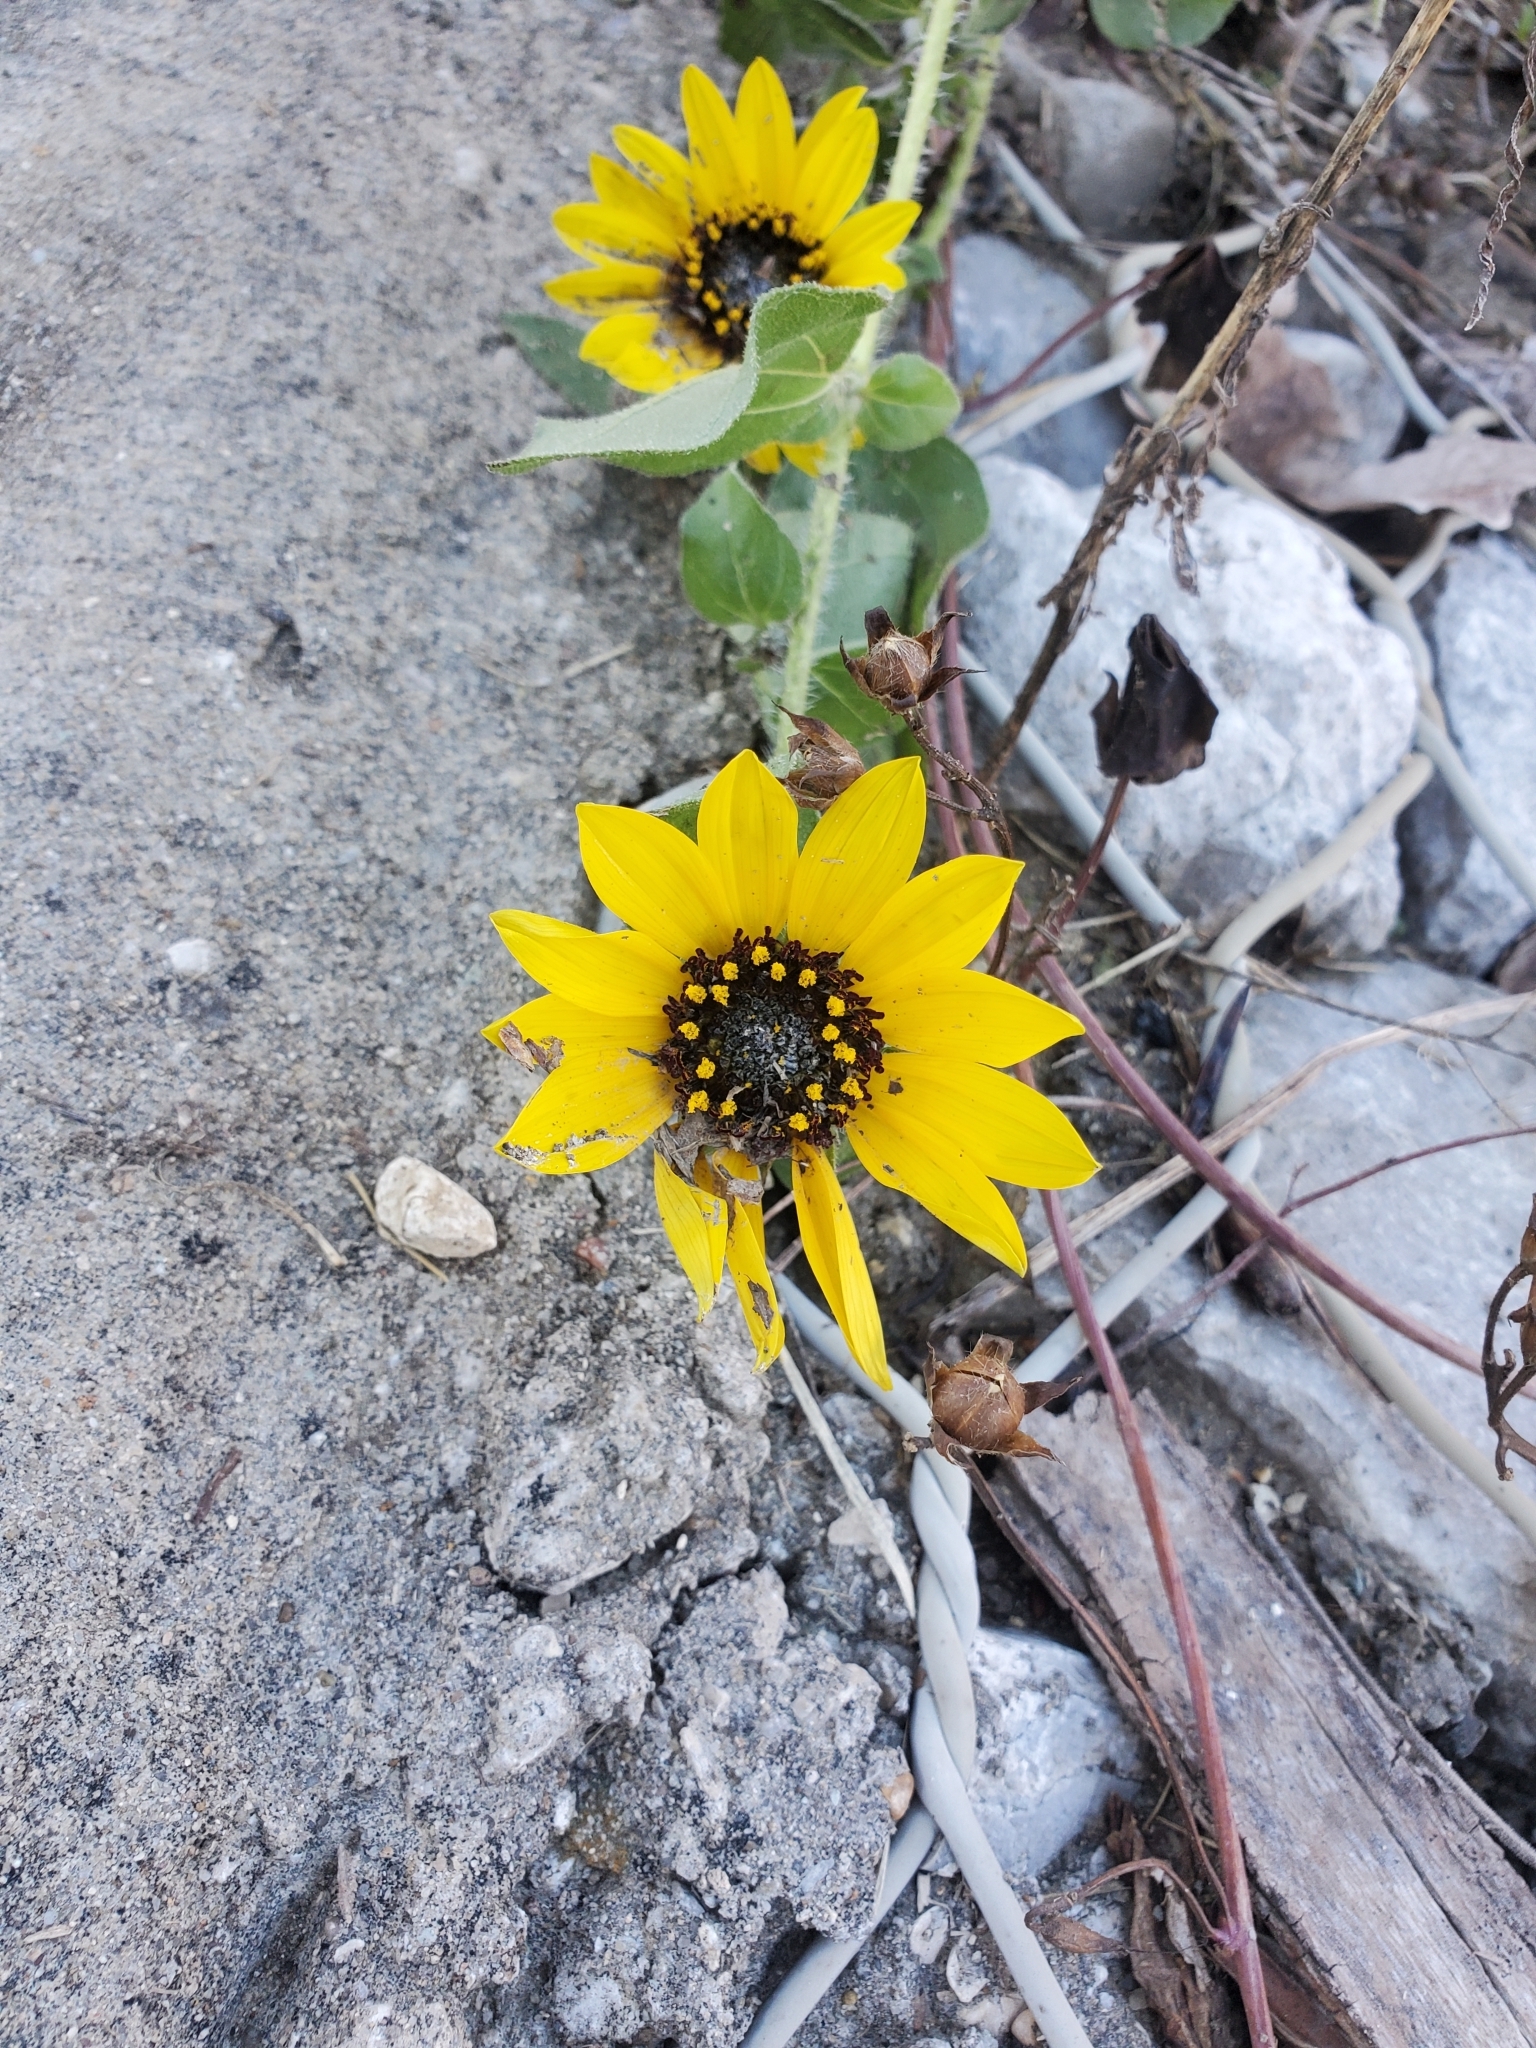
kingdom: Plantae
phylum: Tracheophyta
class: Magnoliopsida
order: Asterales
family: Asteraceae
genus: Helianthus
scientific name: Helianthus annuus
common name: Sunflower
